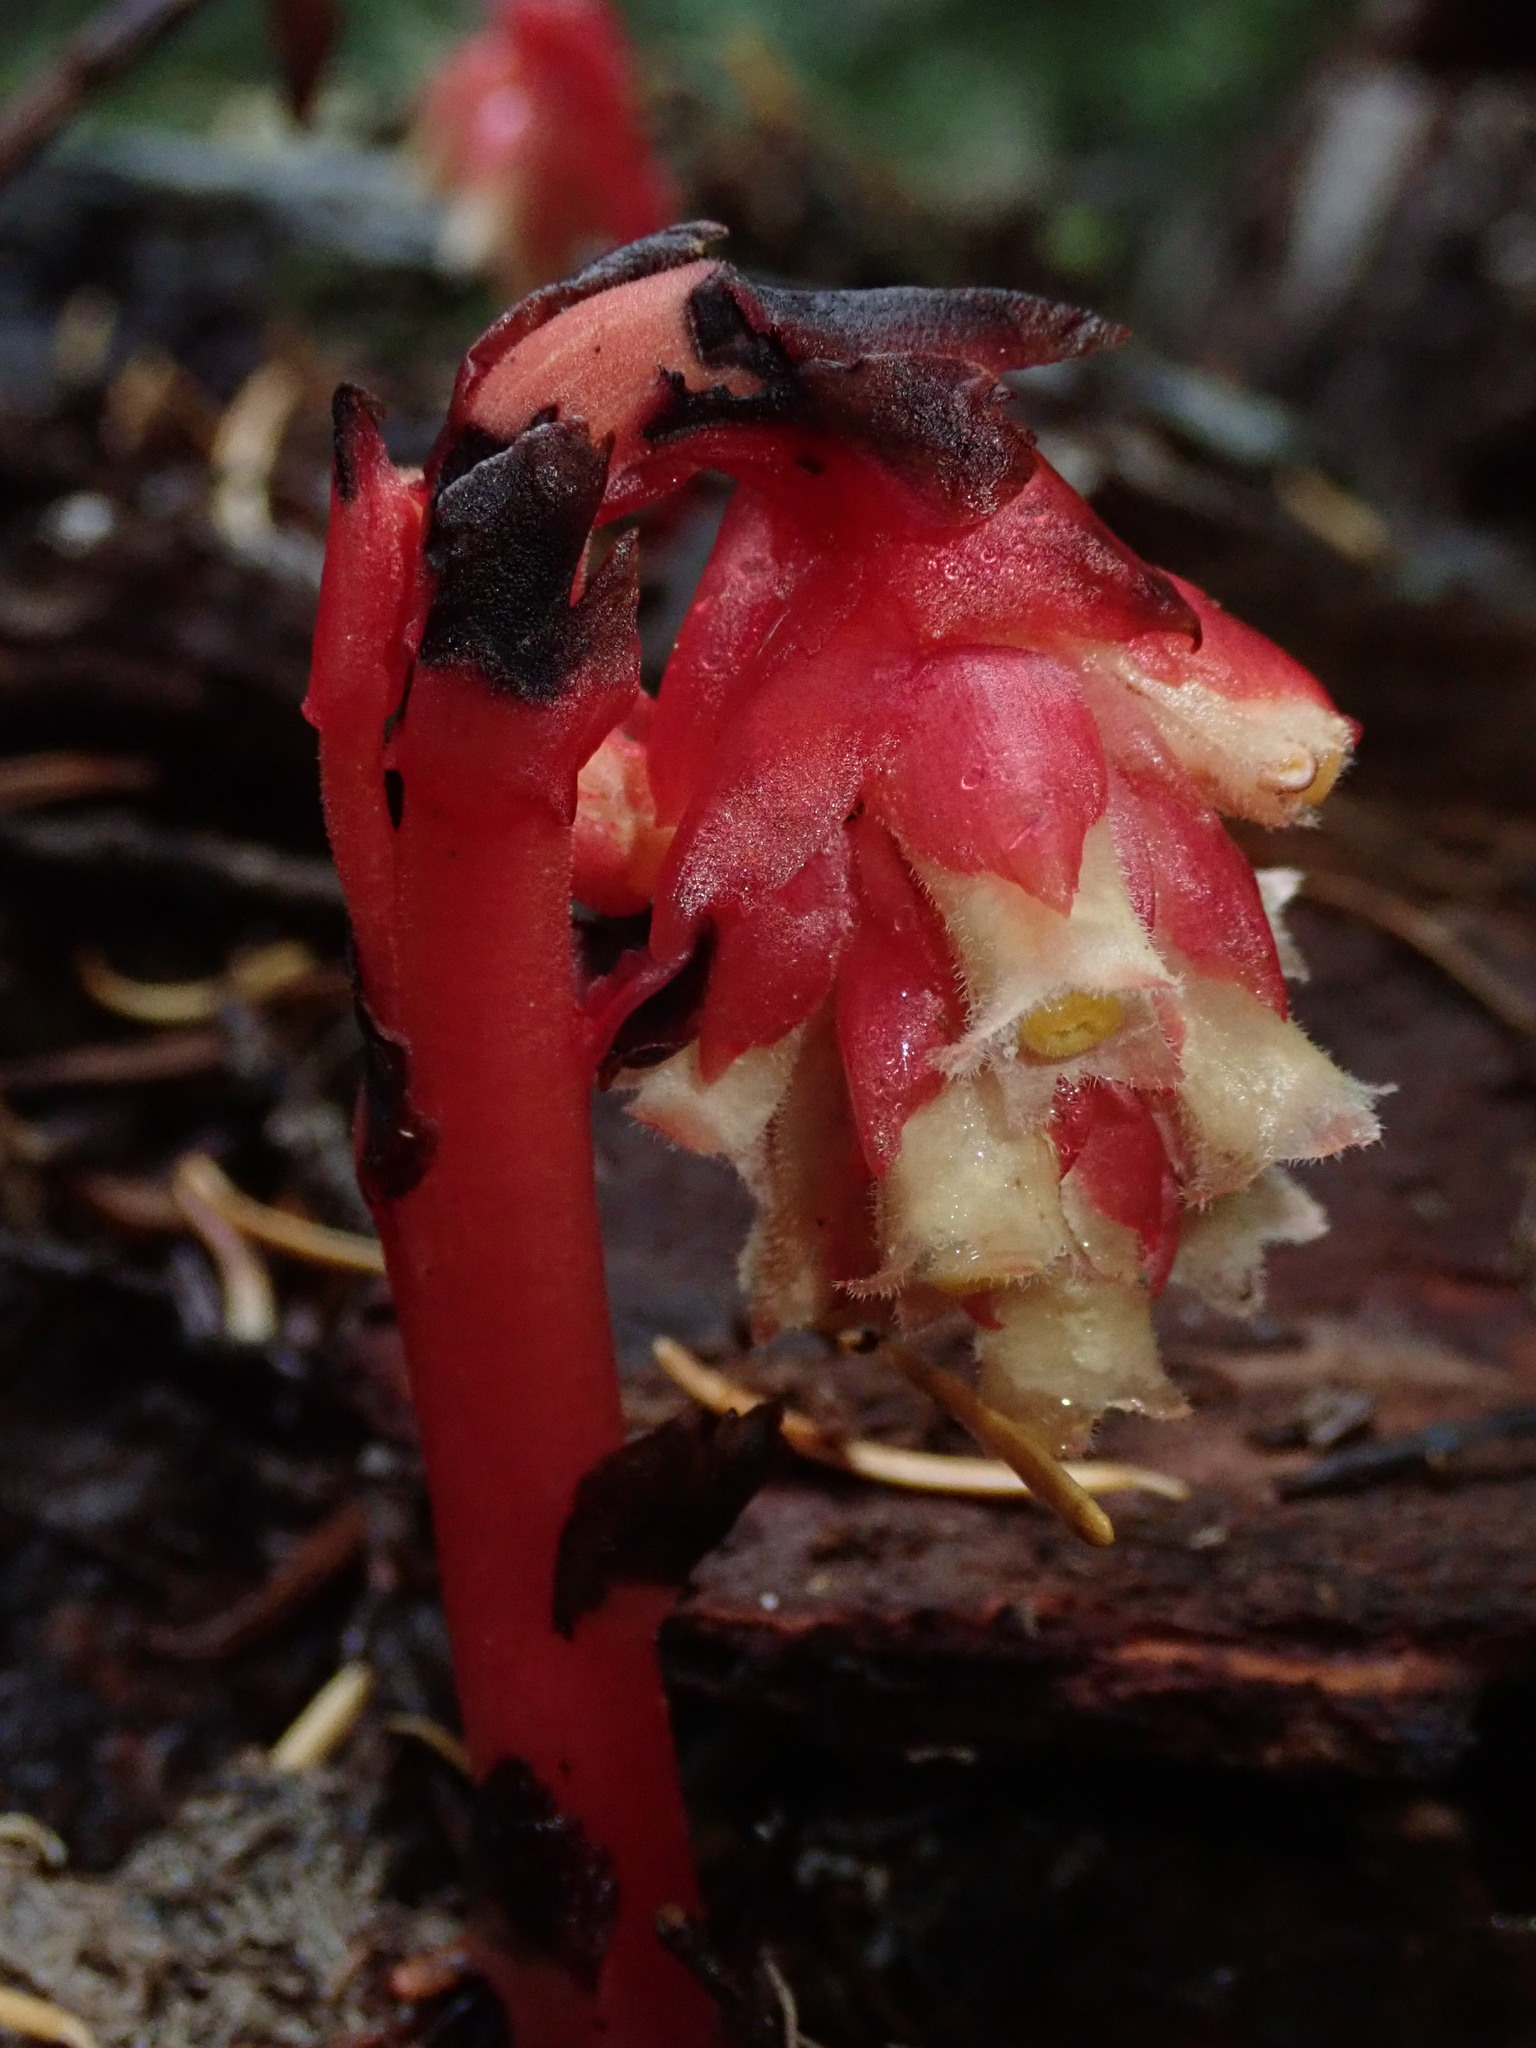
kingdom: Plantae
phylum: Tracheophyta
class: Magnoliopsida
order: Ericales
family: Ericaceae
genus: Hypopitys
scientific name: Hypopitys monotropa
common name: Yellow bird's-nest
